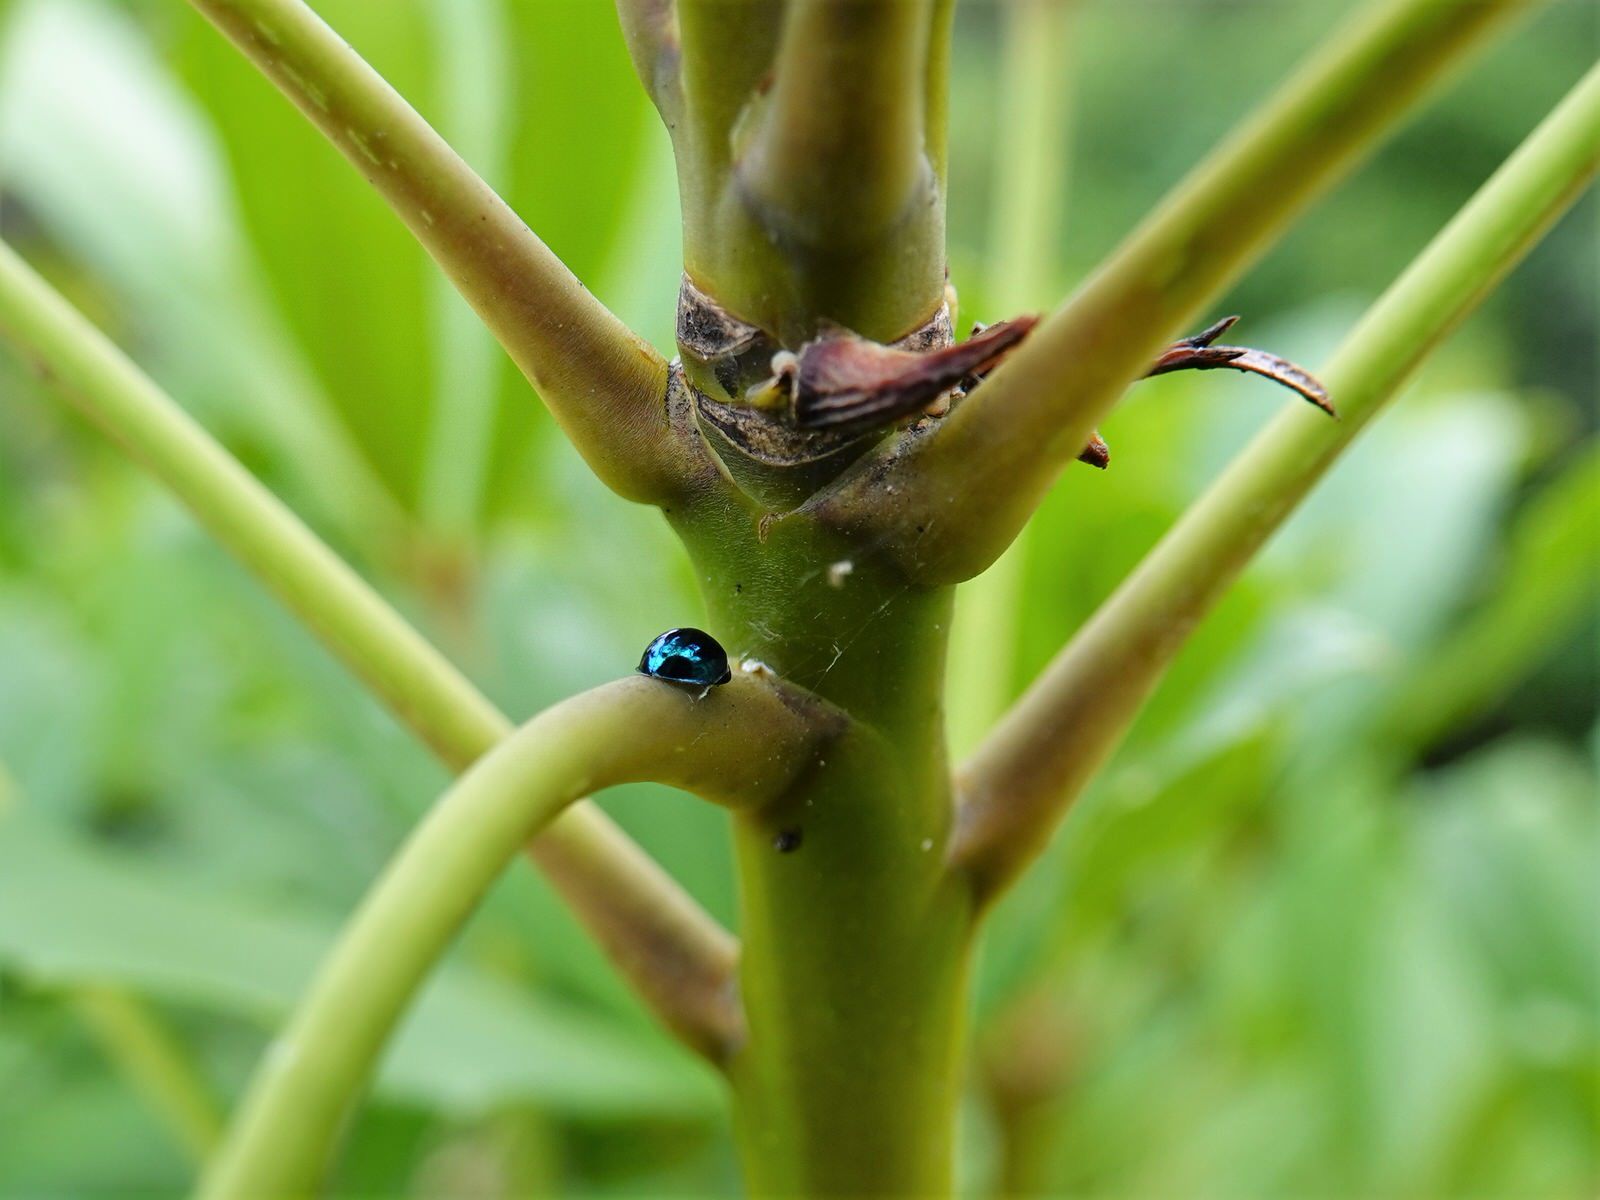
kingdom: Animalia
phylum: Arthropoda
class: Insecta
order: Coleoptera
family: Coccinellidae
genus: Halmus
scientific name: Halmus chalybeus
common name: Steel blue ladybird beetle
